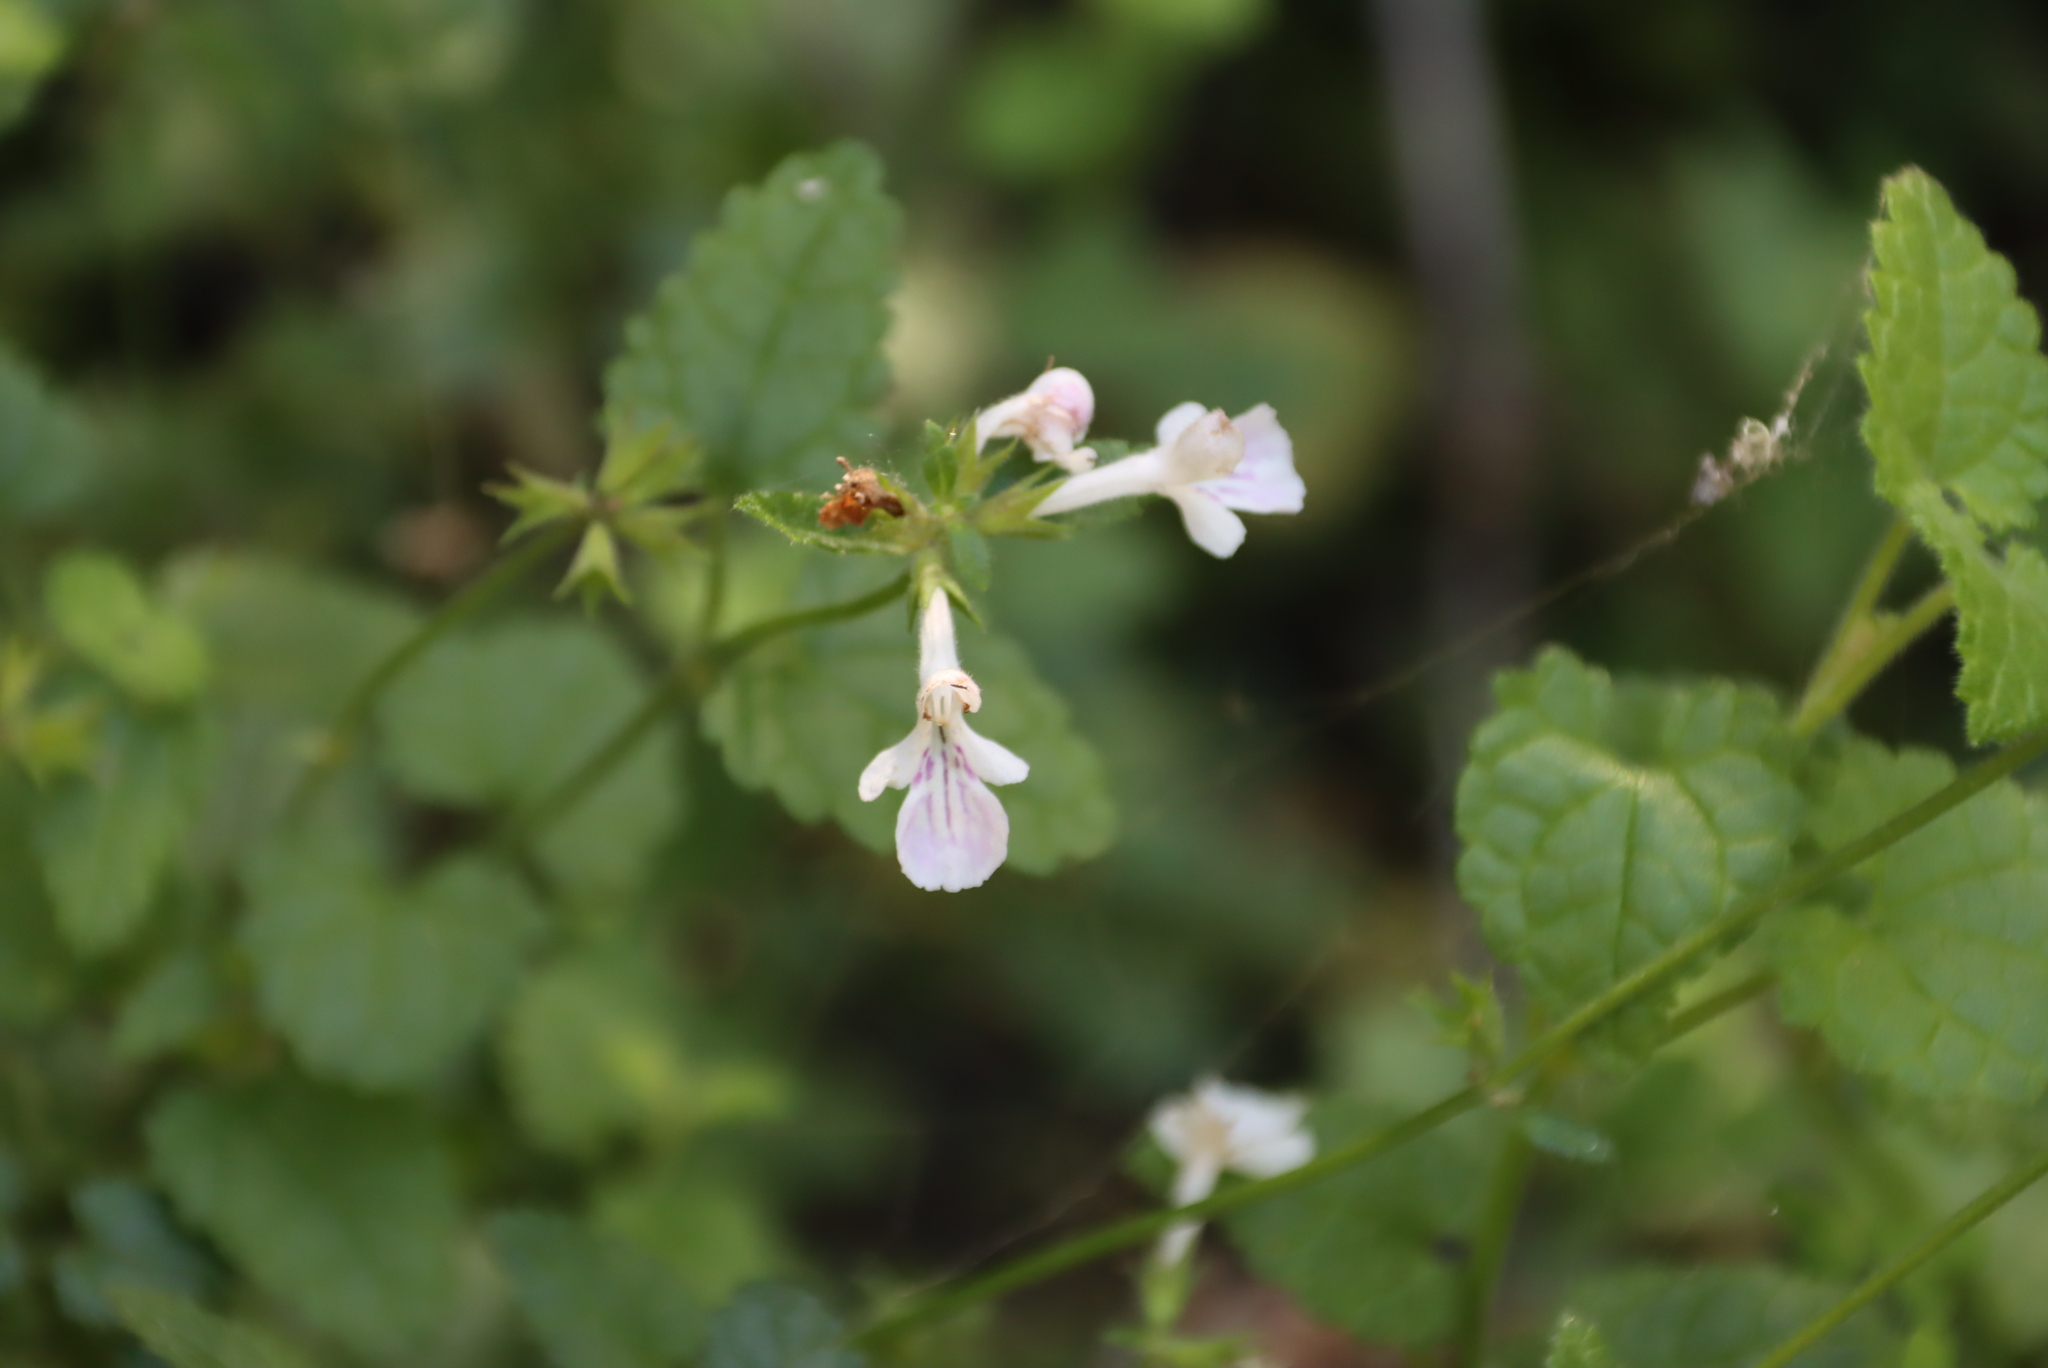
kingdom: Plantae
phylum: Tracheophyta
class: Magnoliopsida
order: Lamiales
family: Lamiaceae
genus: Stachys
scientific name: Stachys aethiopica
